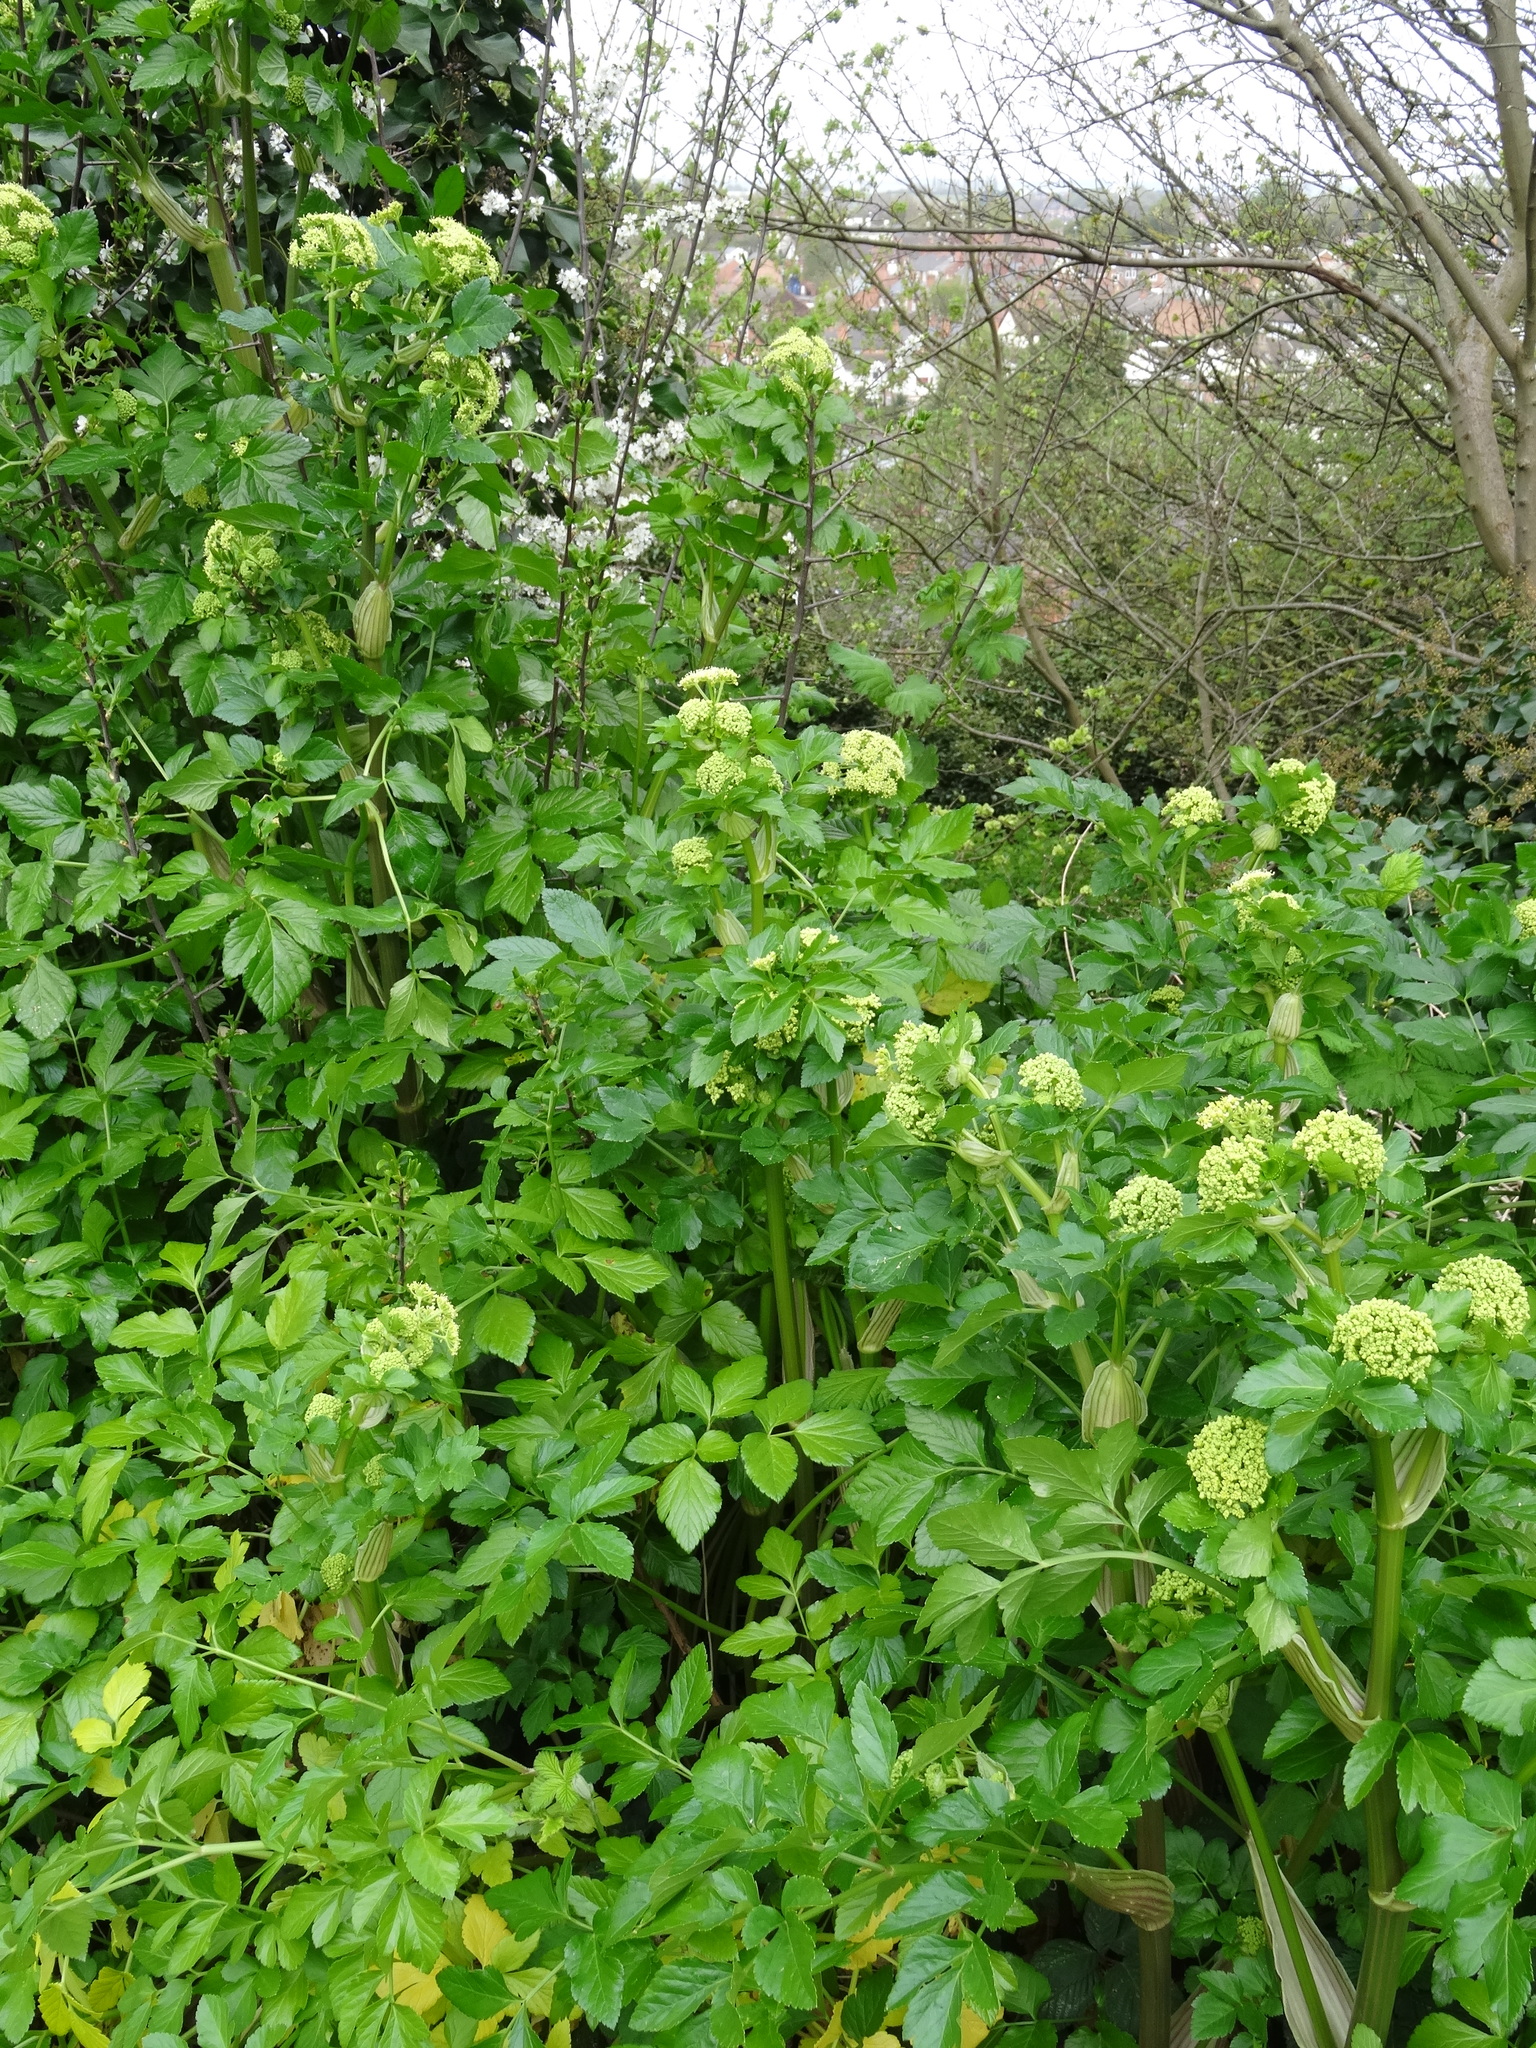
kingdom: Plantae
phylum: Tracheophyta
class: Magnoliopsida
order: Apiales
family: Apiaceae
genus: Smyrnium
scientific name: Smyrnium olusatrum
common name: Alexanders
